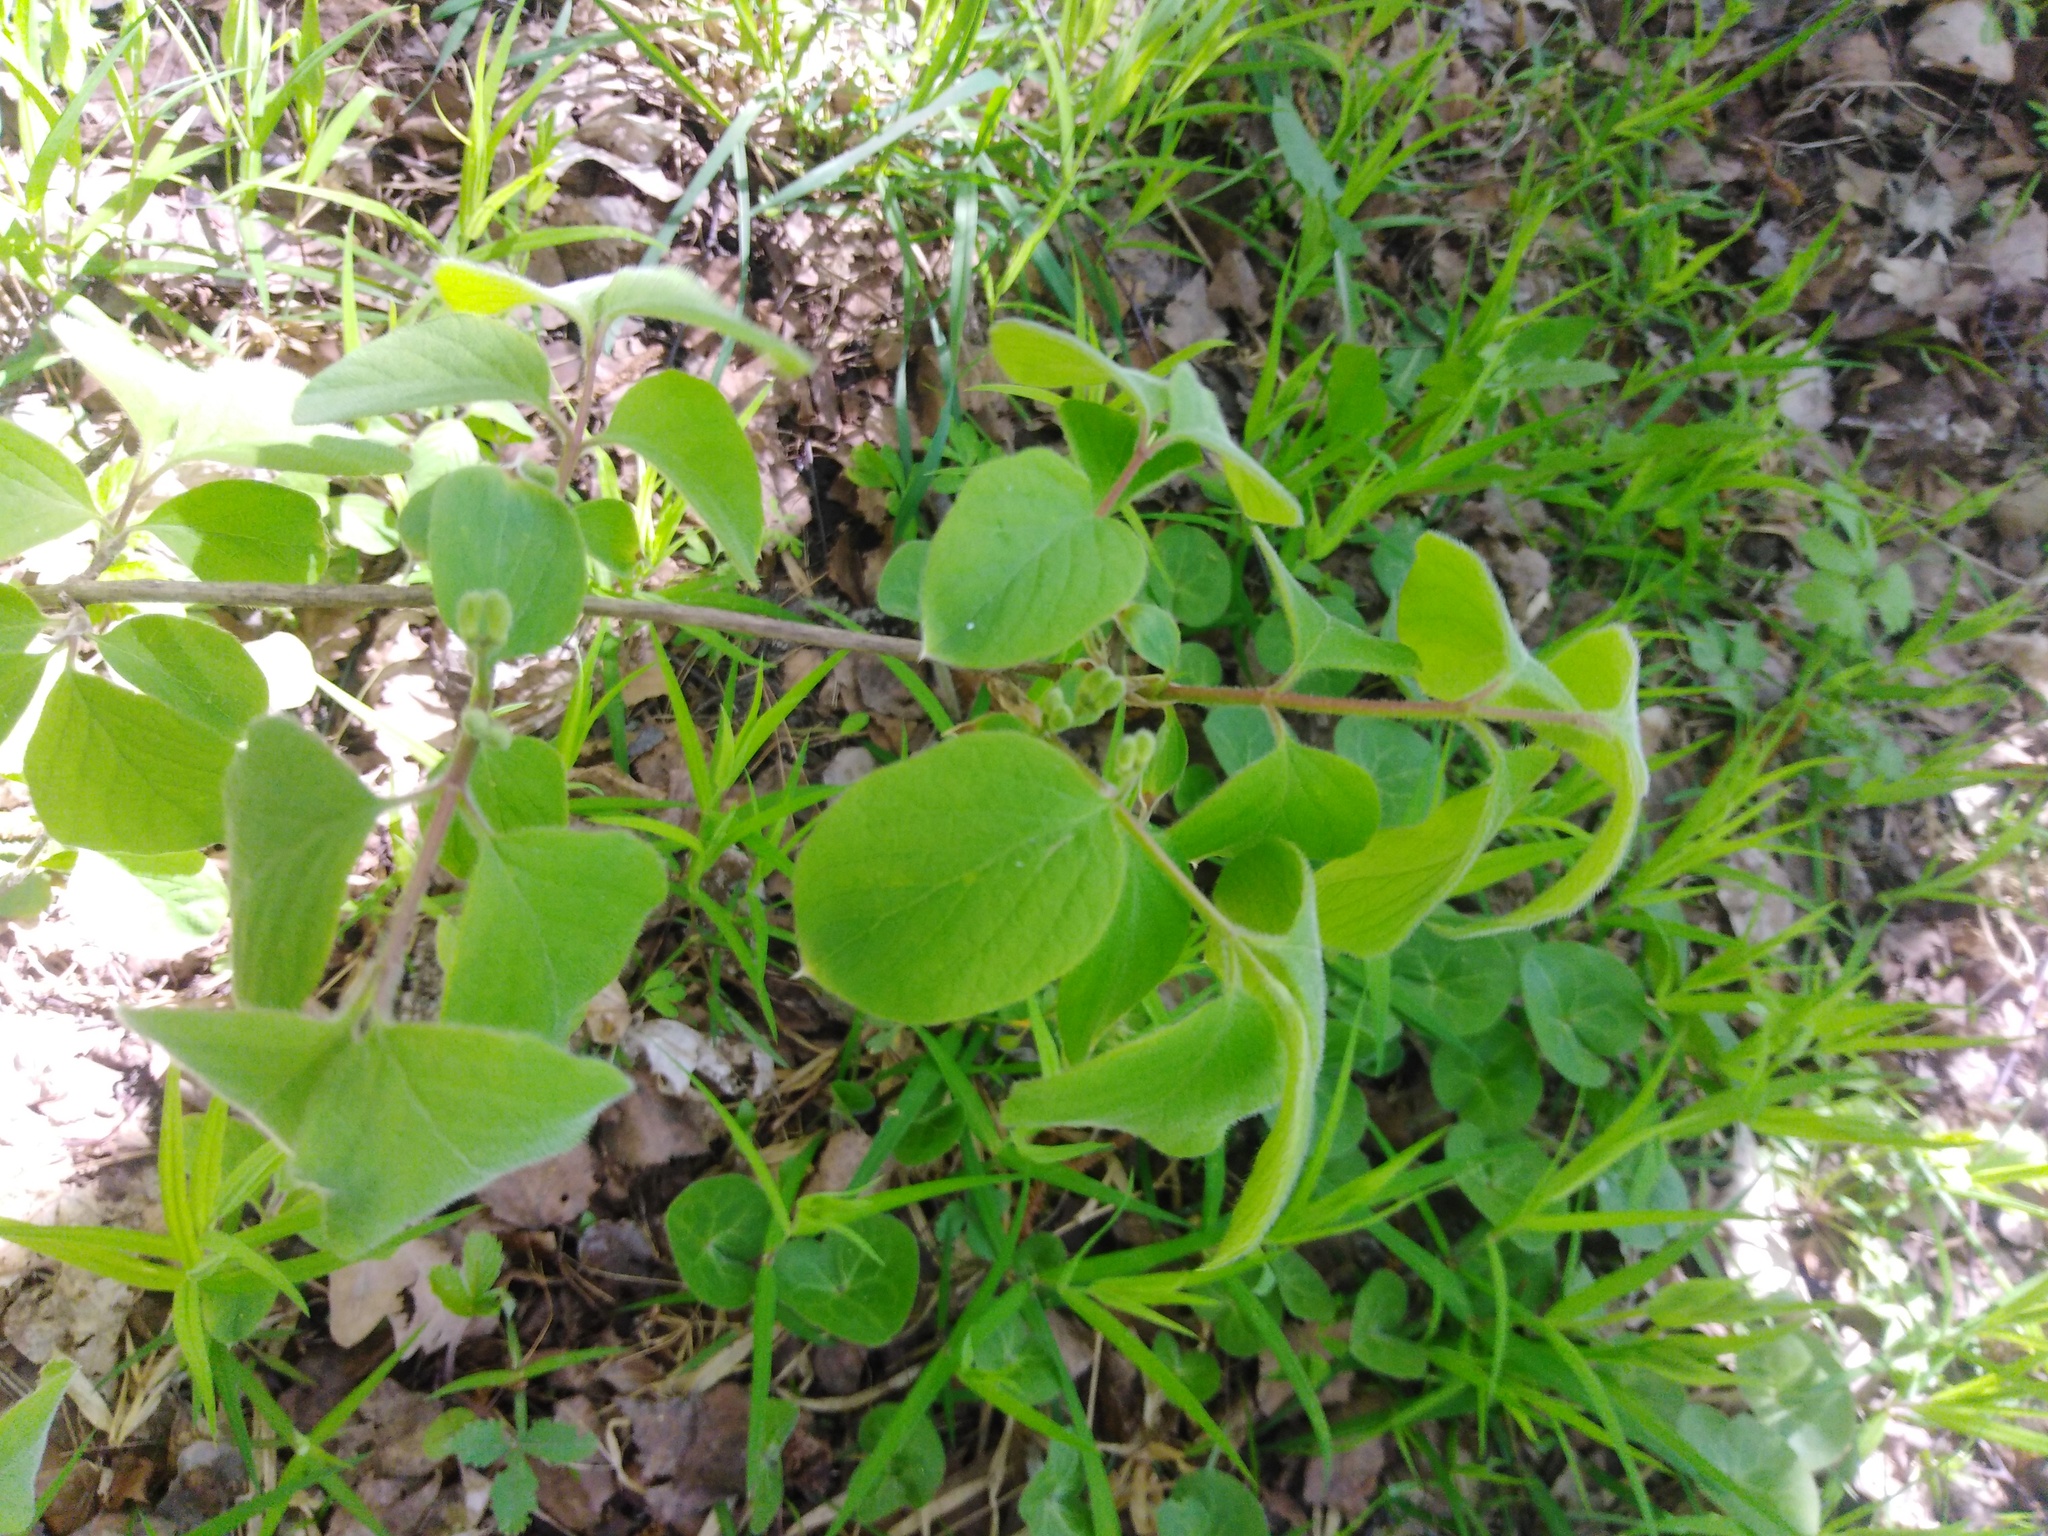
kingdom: Plantae
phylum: Tracheophyta
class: Magnoliopsida
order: Dipsacales
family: Caprifoliaceae
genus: Lonicera
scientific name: Lonicera xylosteum
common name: Fly honeysuckle
